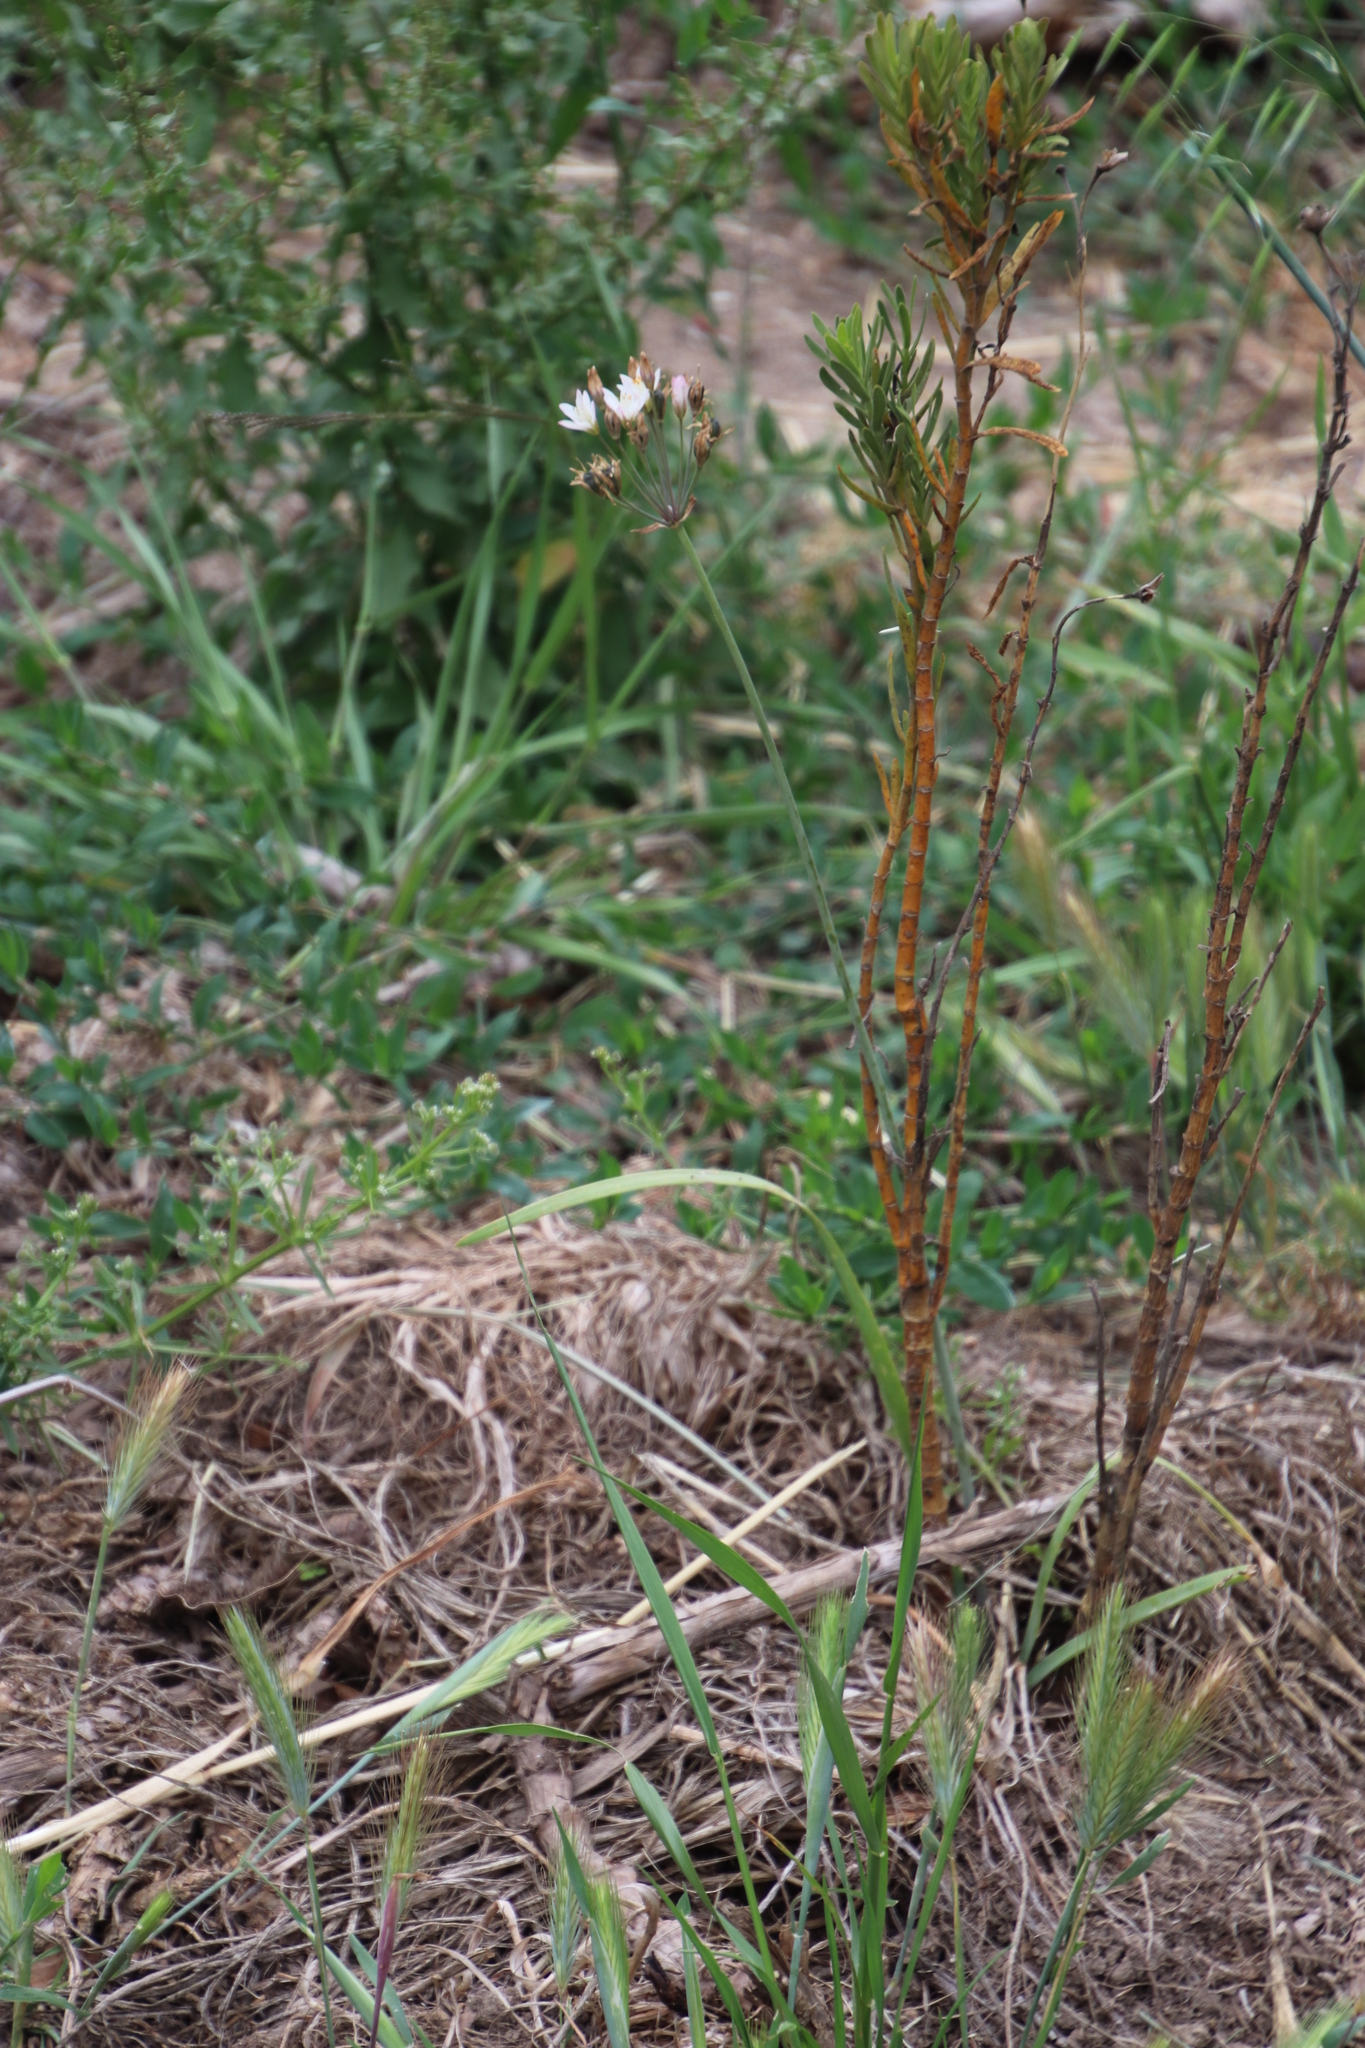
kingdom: Plantae
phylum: Tracheophyta
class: Liliopsida
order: Asparagales
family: Amaryllidaceae
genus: Nothoscordum
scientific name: Nothoscordum gracile
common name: Slender false garlic
